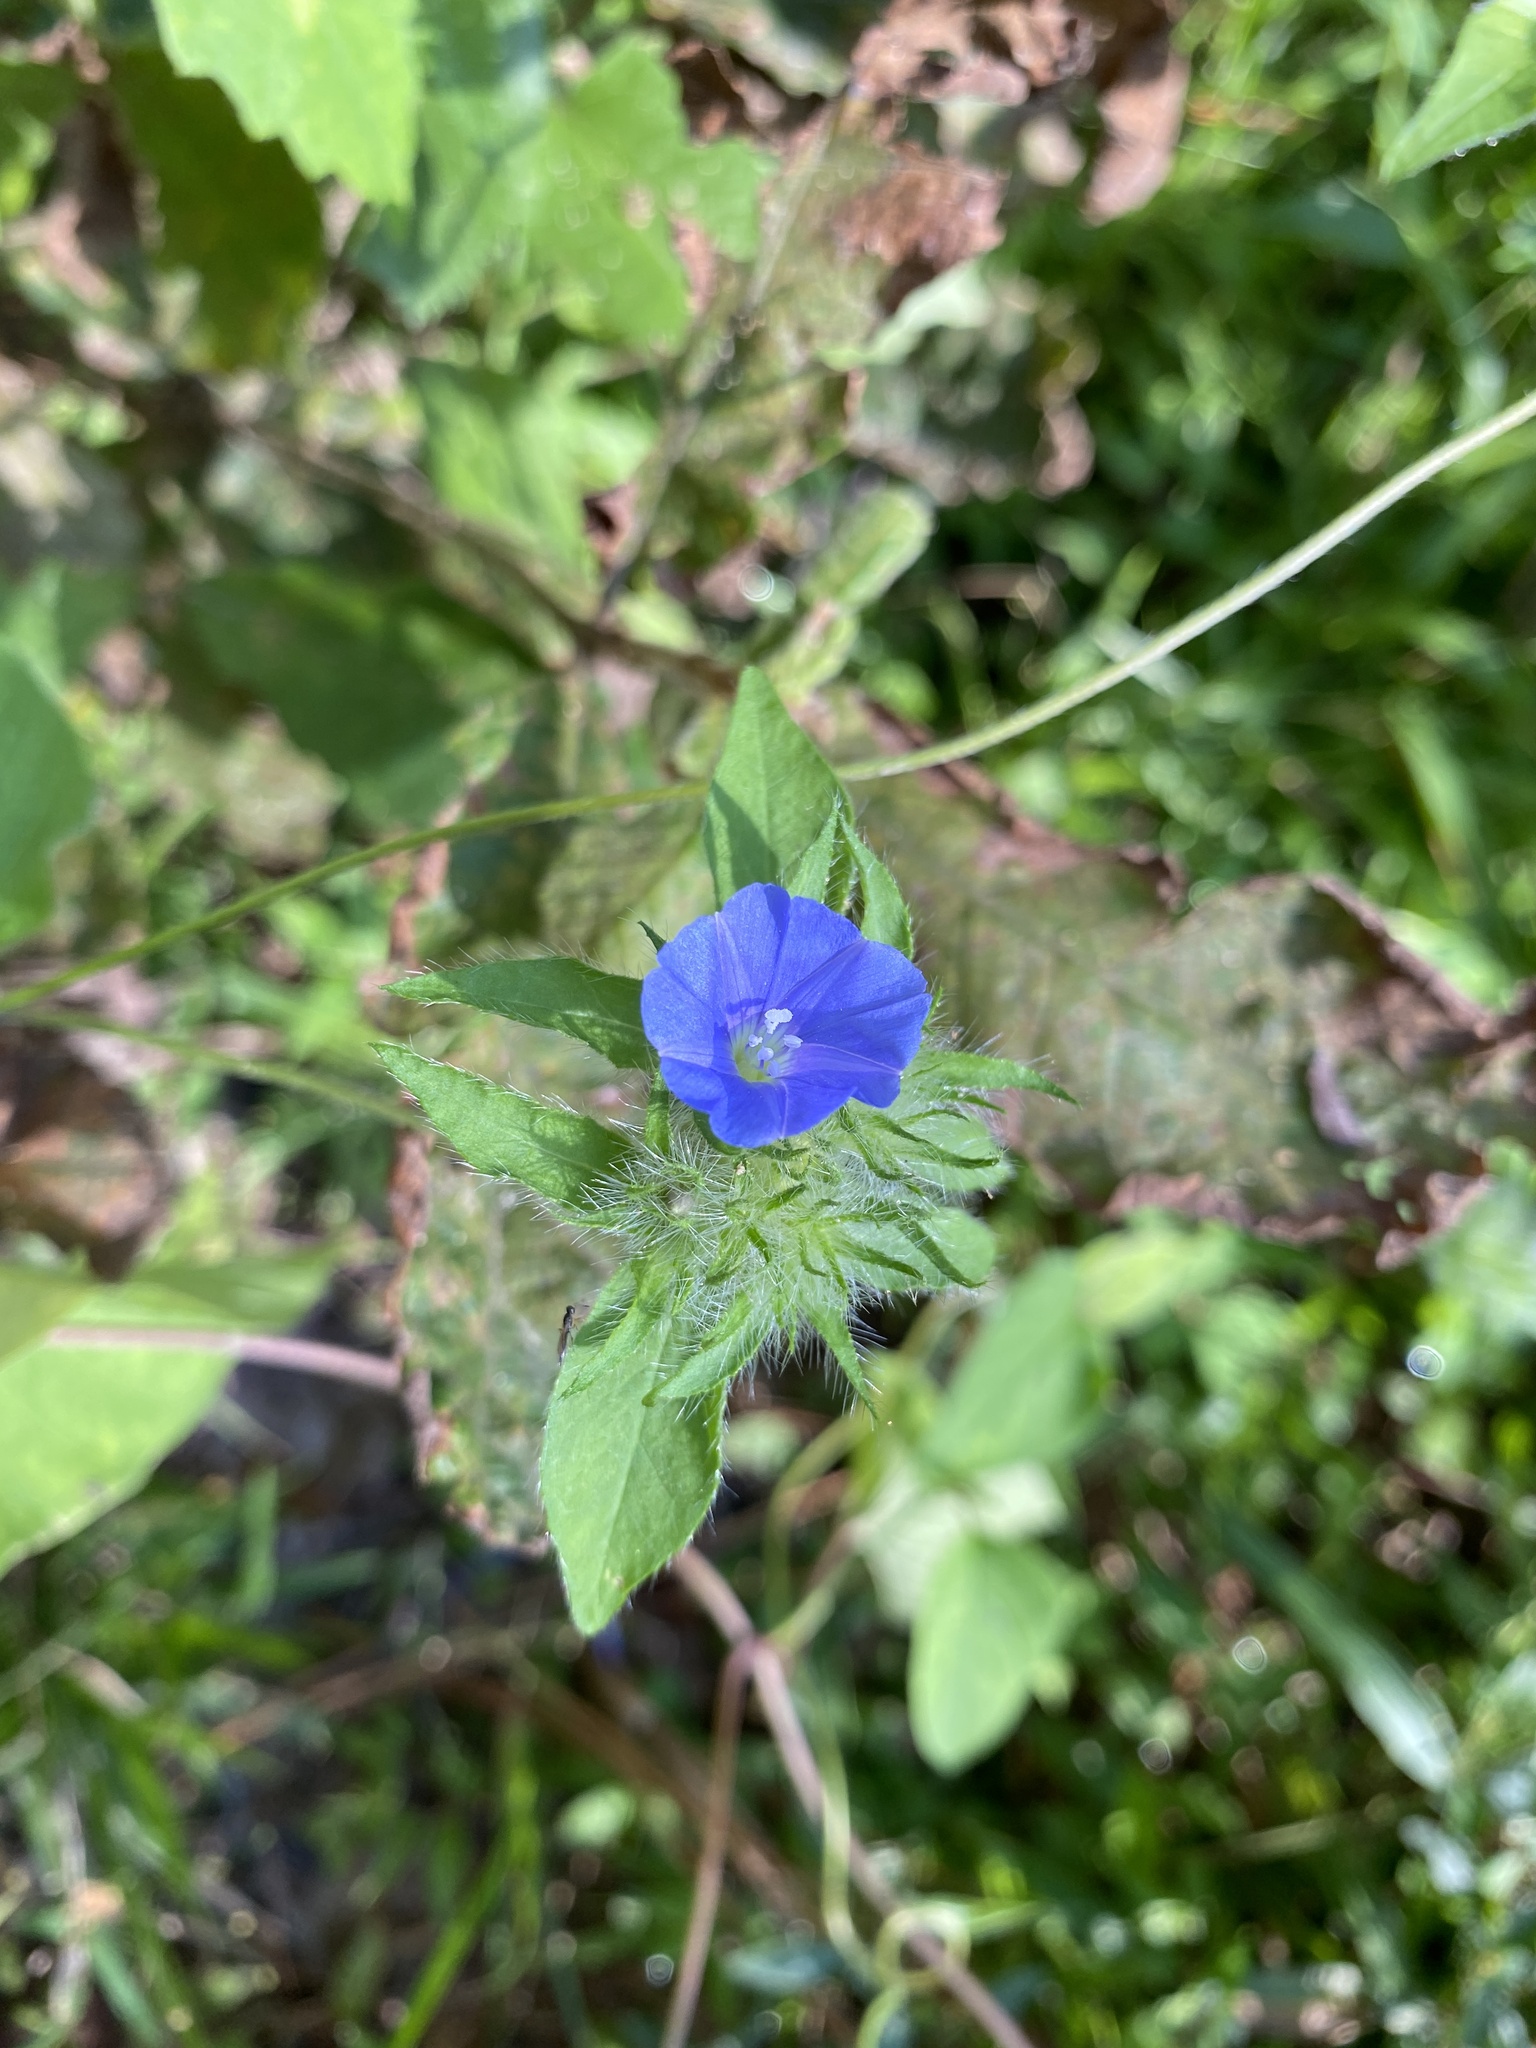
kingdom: Plantae
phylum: Tracheophyta
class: Magnoliopsida
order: Solanales
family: Convolvulaceae
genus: Jacquemontia
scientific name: Jacquemontia tamnifolia
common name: Hairy clustervine
